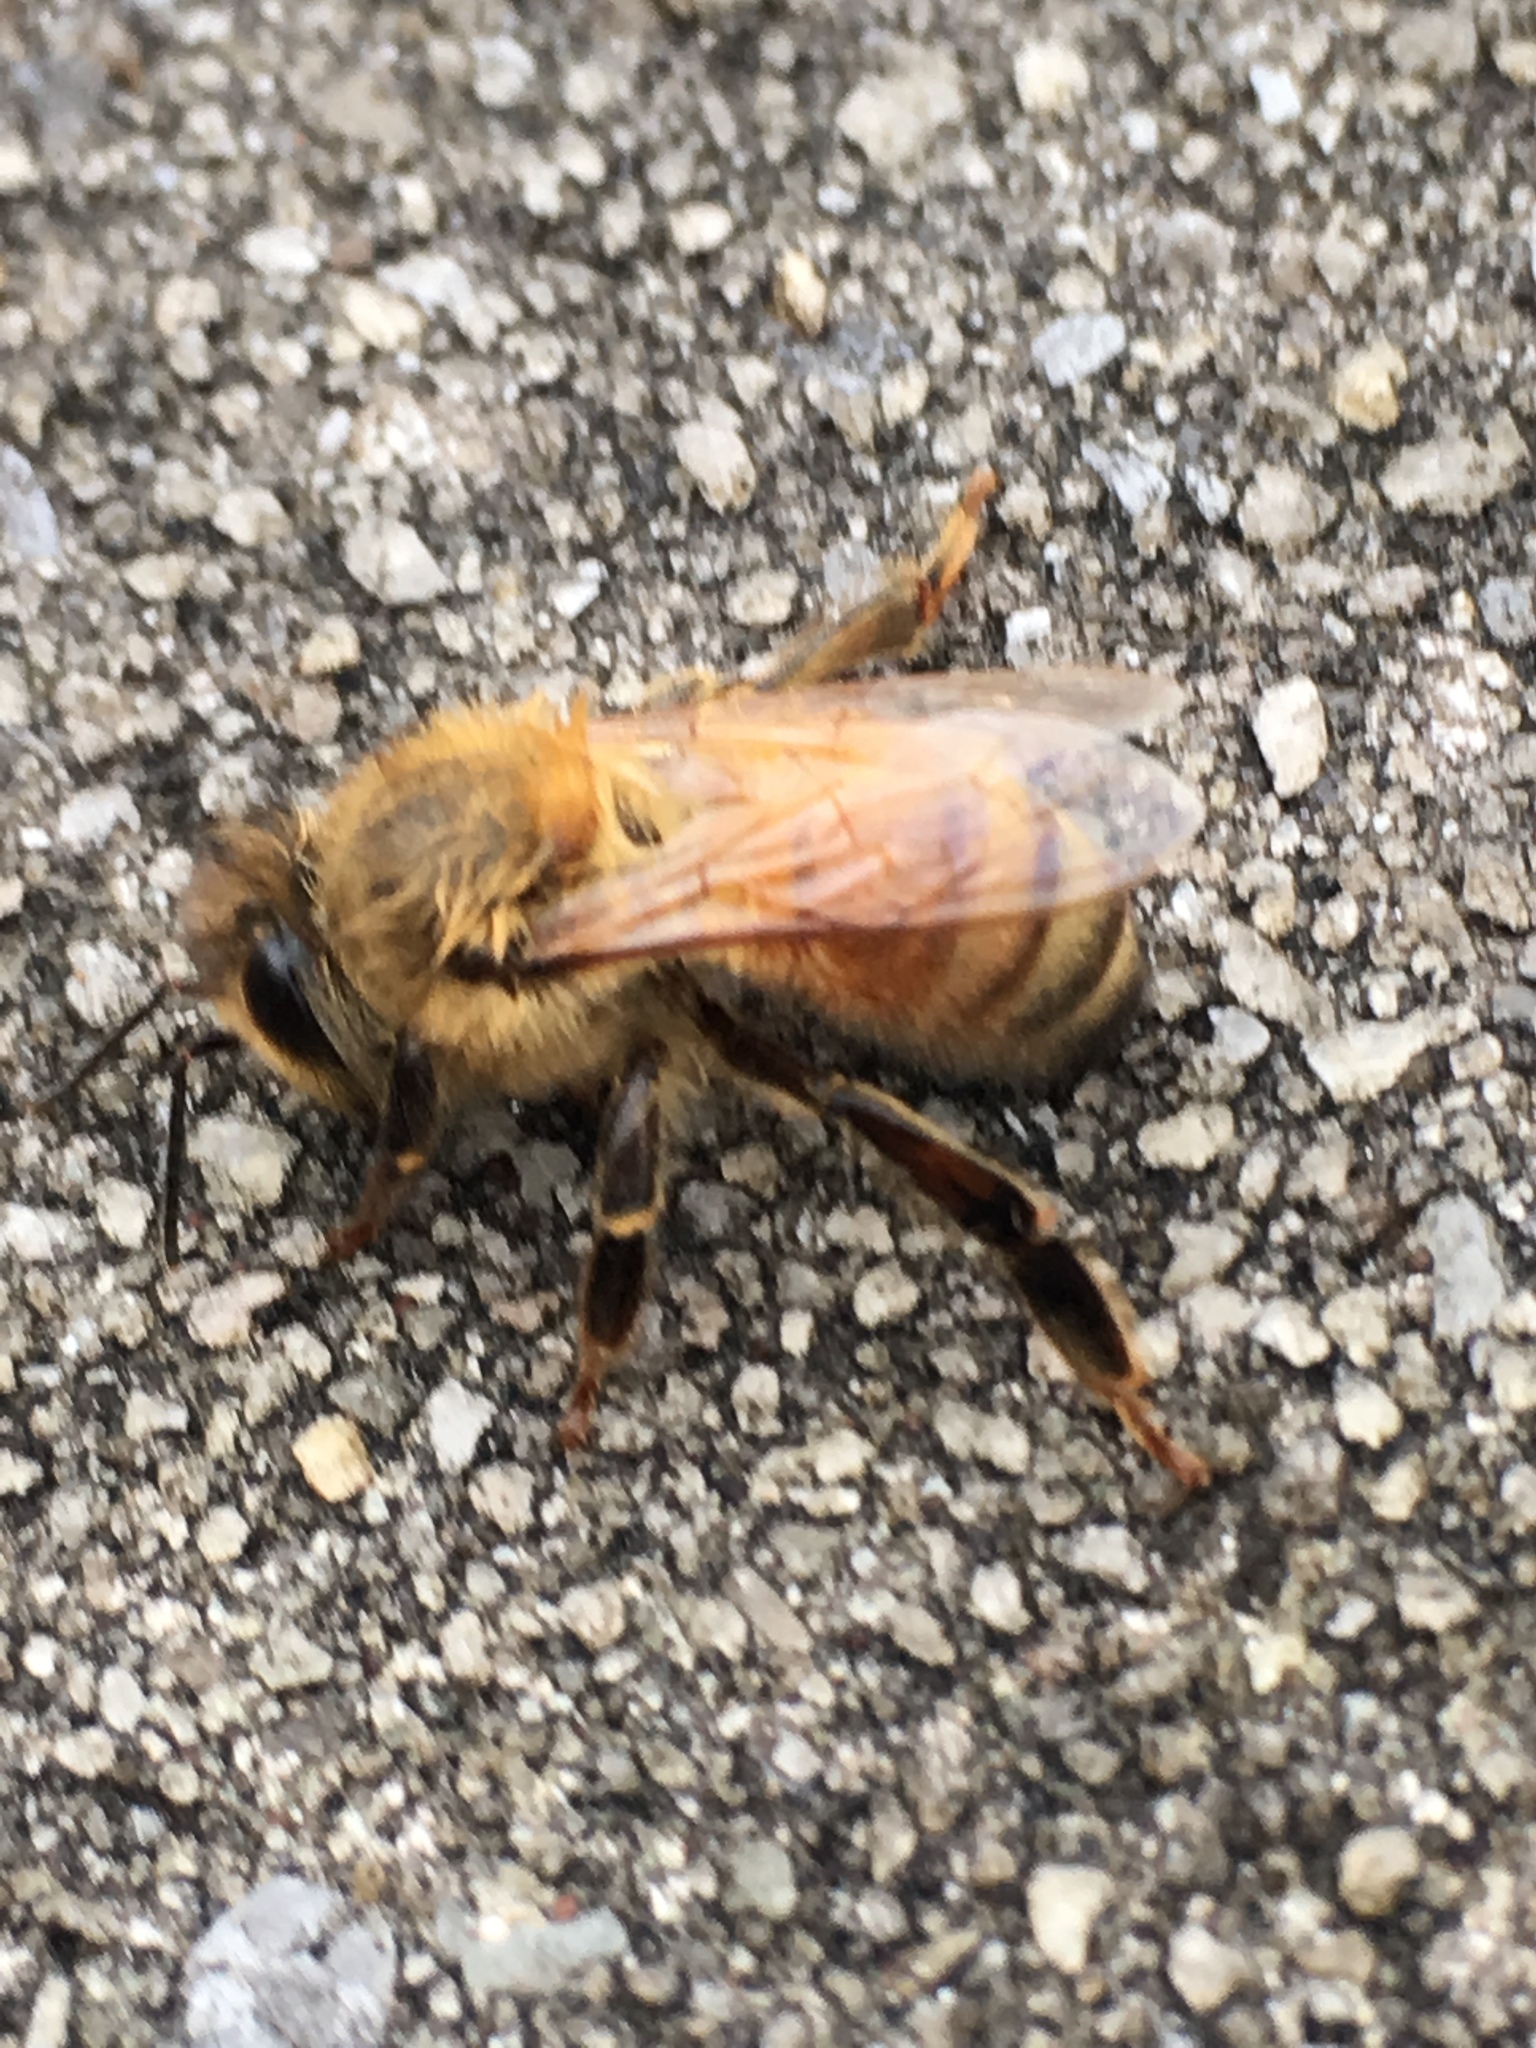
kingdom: Animalia
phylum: Arthropoda
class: Insecta
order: Hymenoptera
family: Apidae
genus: Apis
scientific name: Apis mellifera
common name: Honey bee
